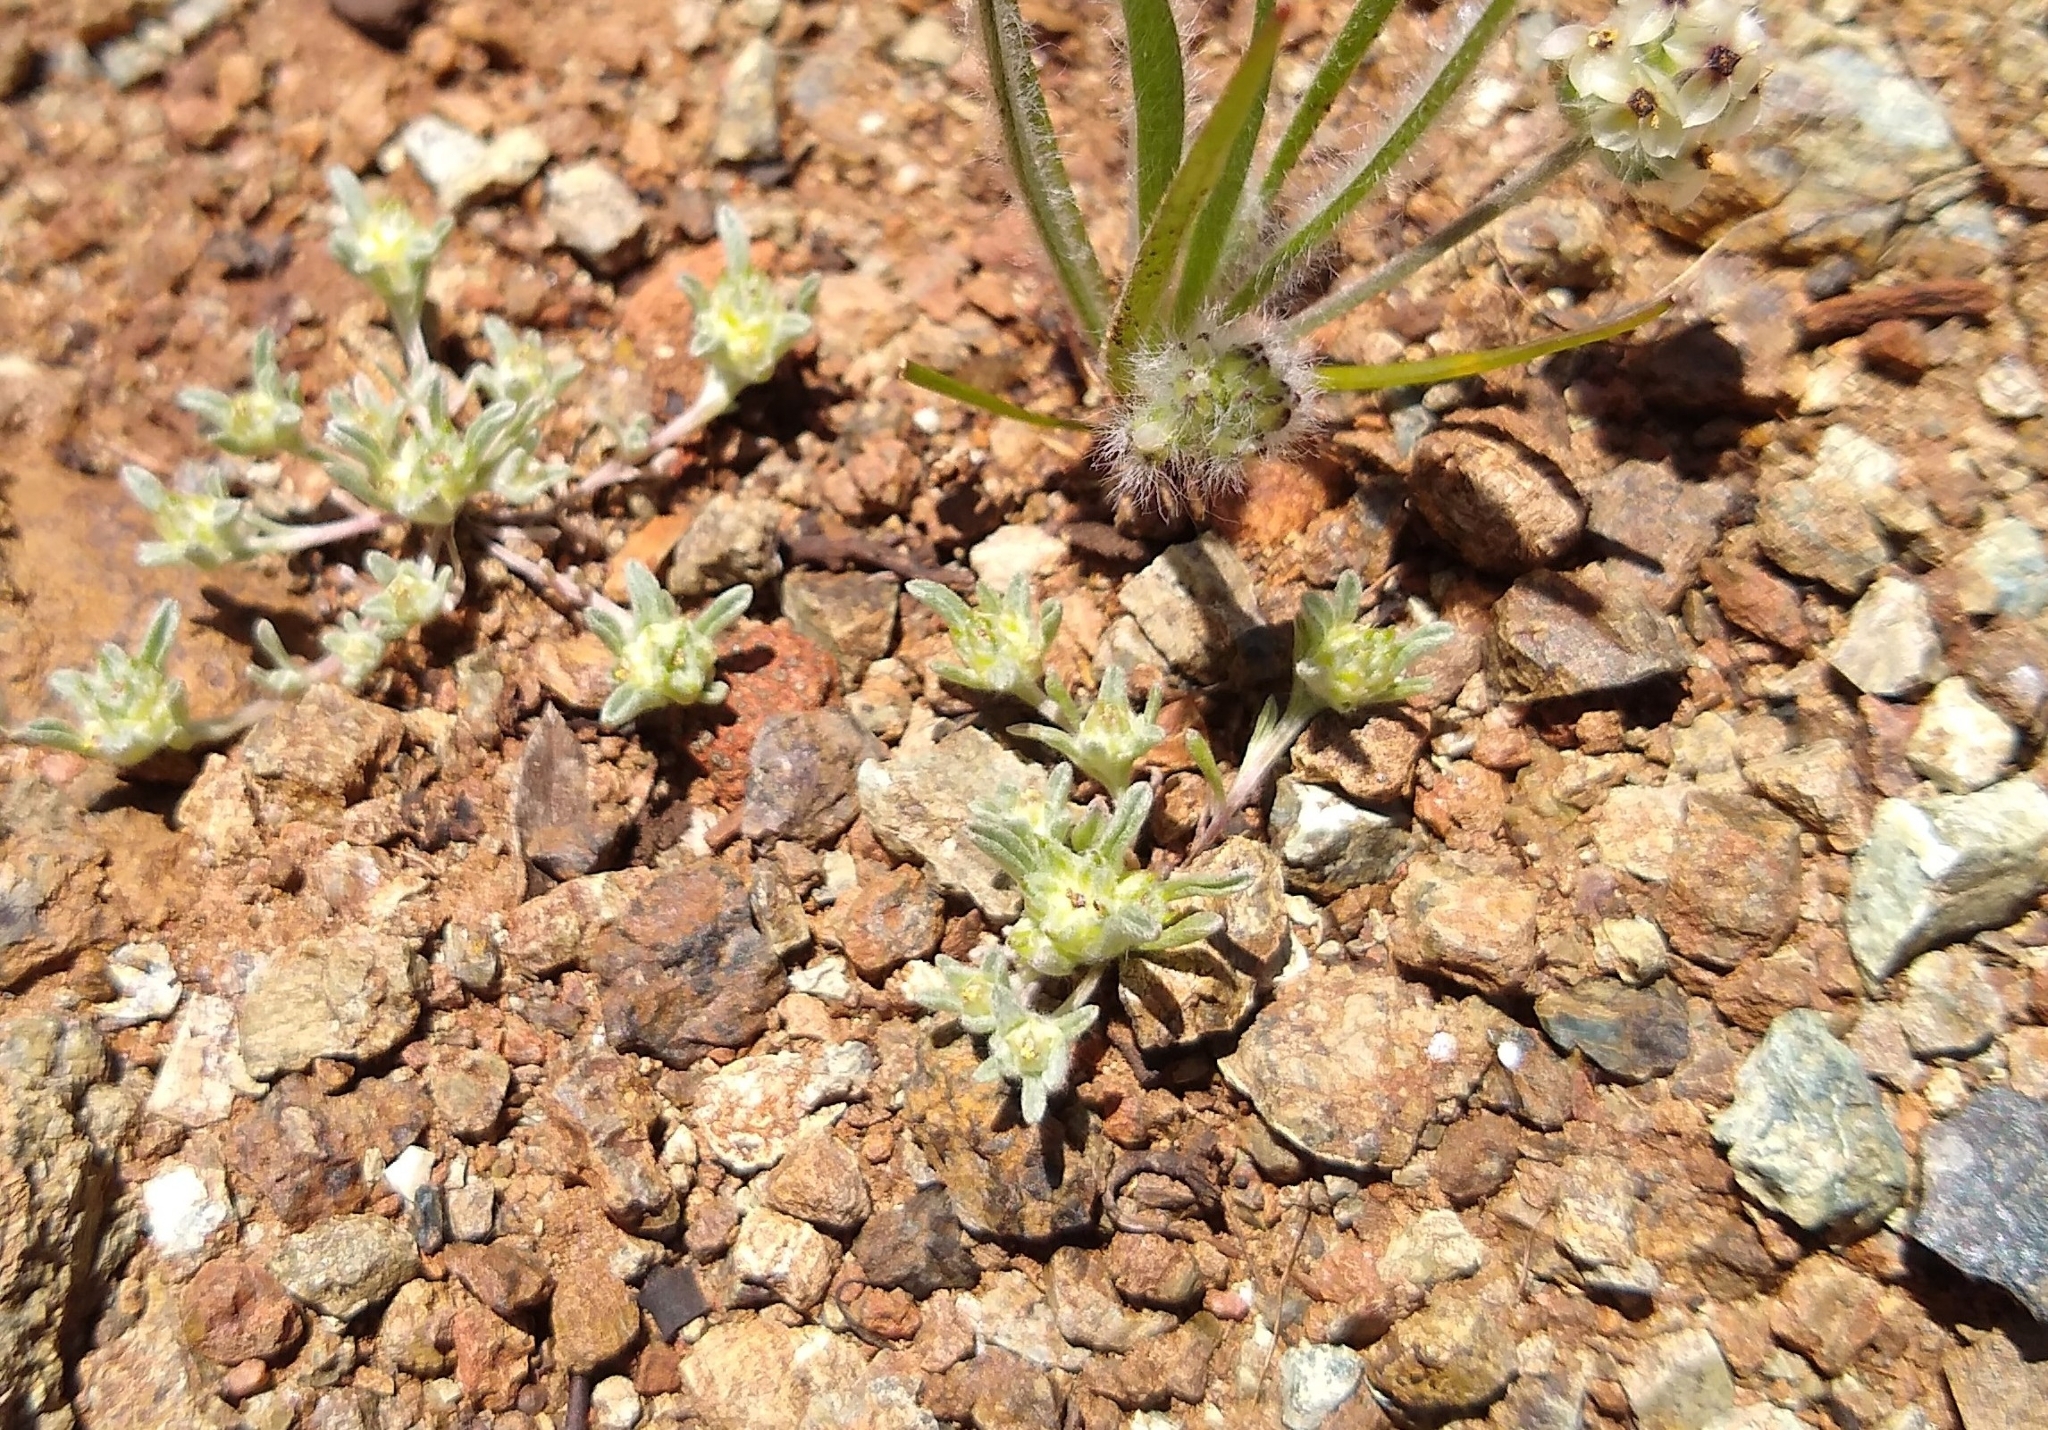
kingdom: Plantae
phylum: Tracheophyta
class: Magnoliopsida
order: Asterales
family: Asteraceae
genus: Ancistrocarphus
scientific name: Ancistrocarphus filagineus
